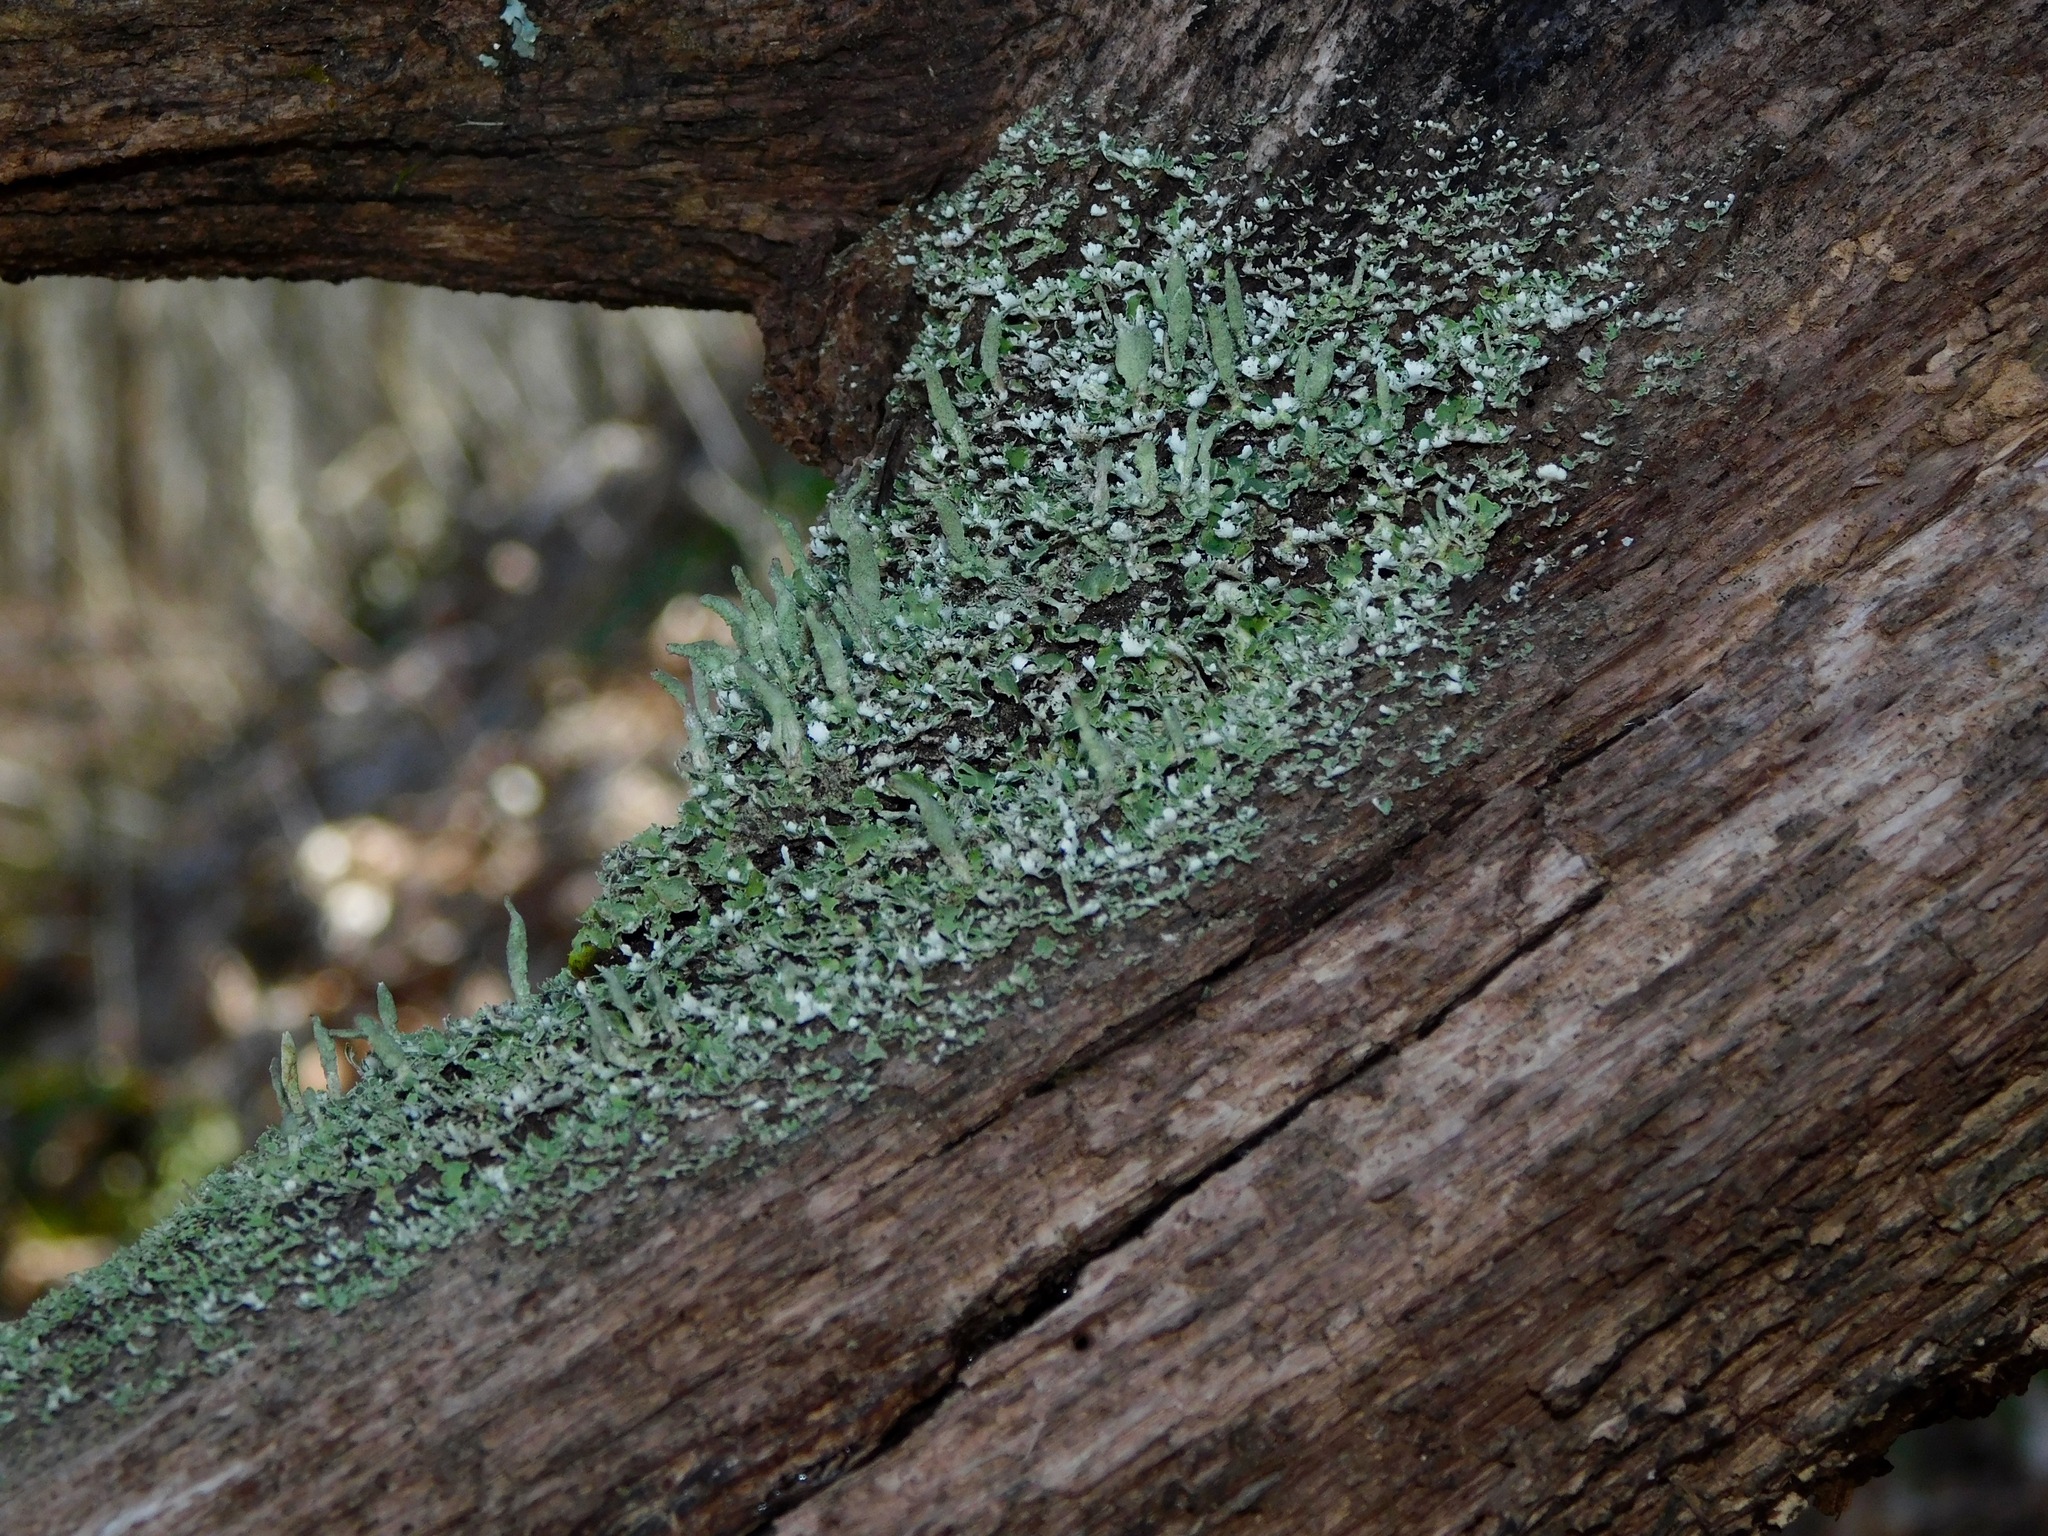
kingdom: Fungi
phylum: Ascomycota
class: Lecanoromycetes
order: Lecanorales
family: Cladoniaceae
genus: Cladonia
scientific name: Cladonia ochrochlora
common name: Smooth-footed powderhorn
